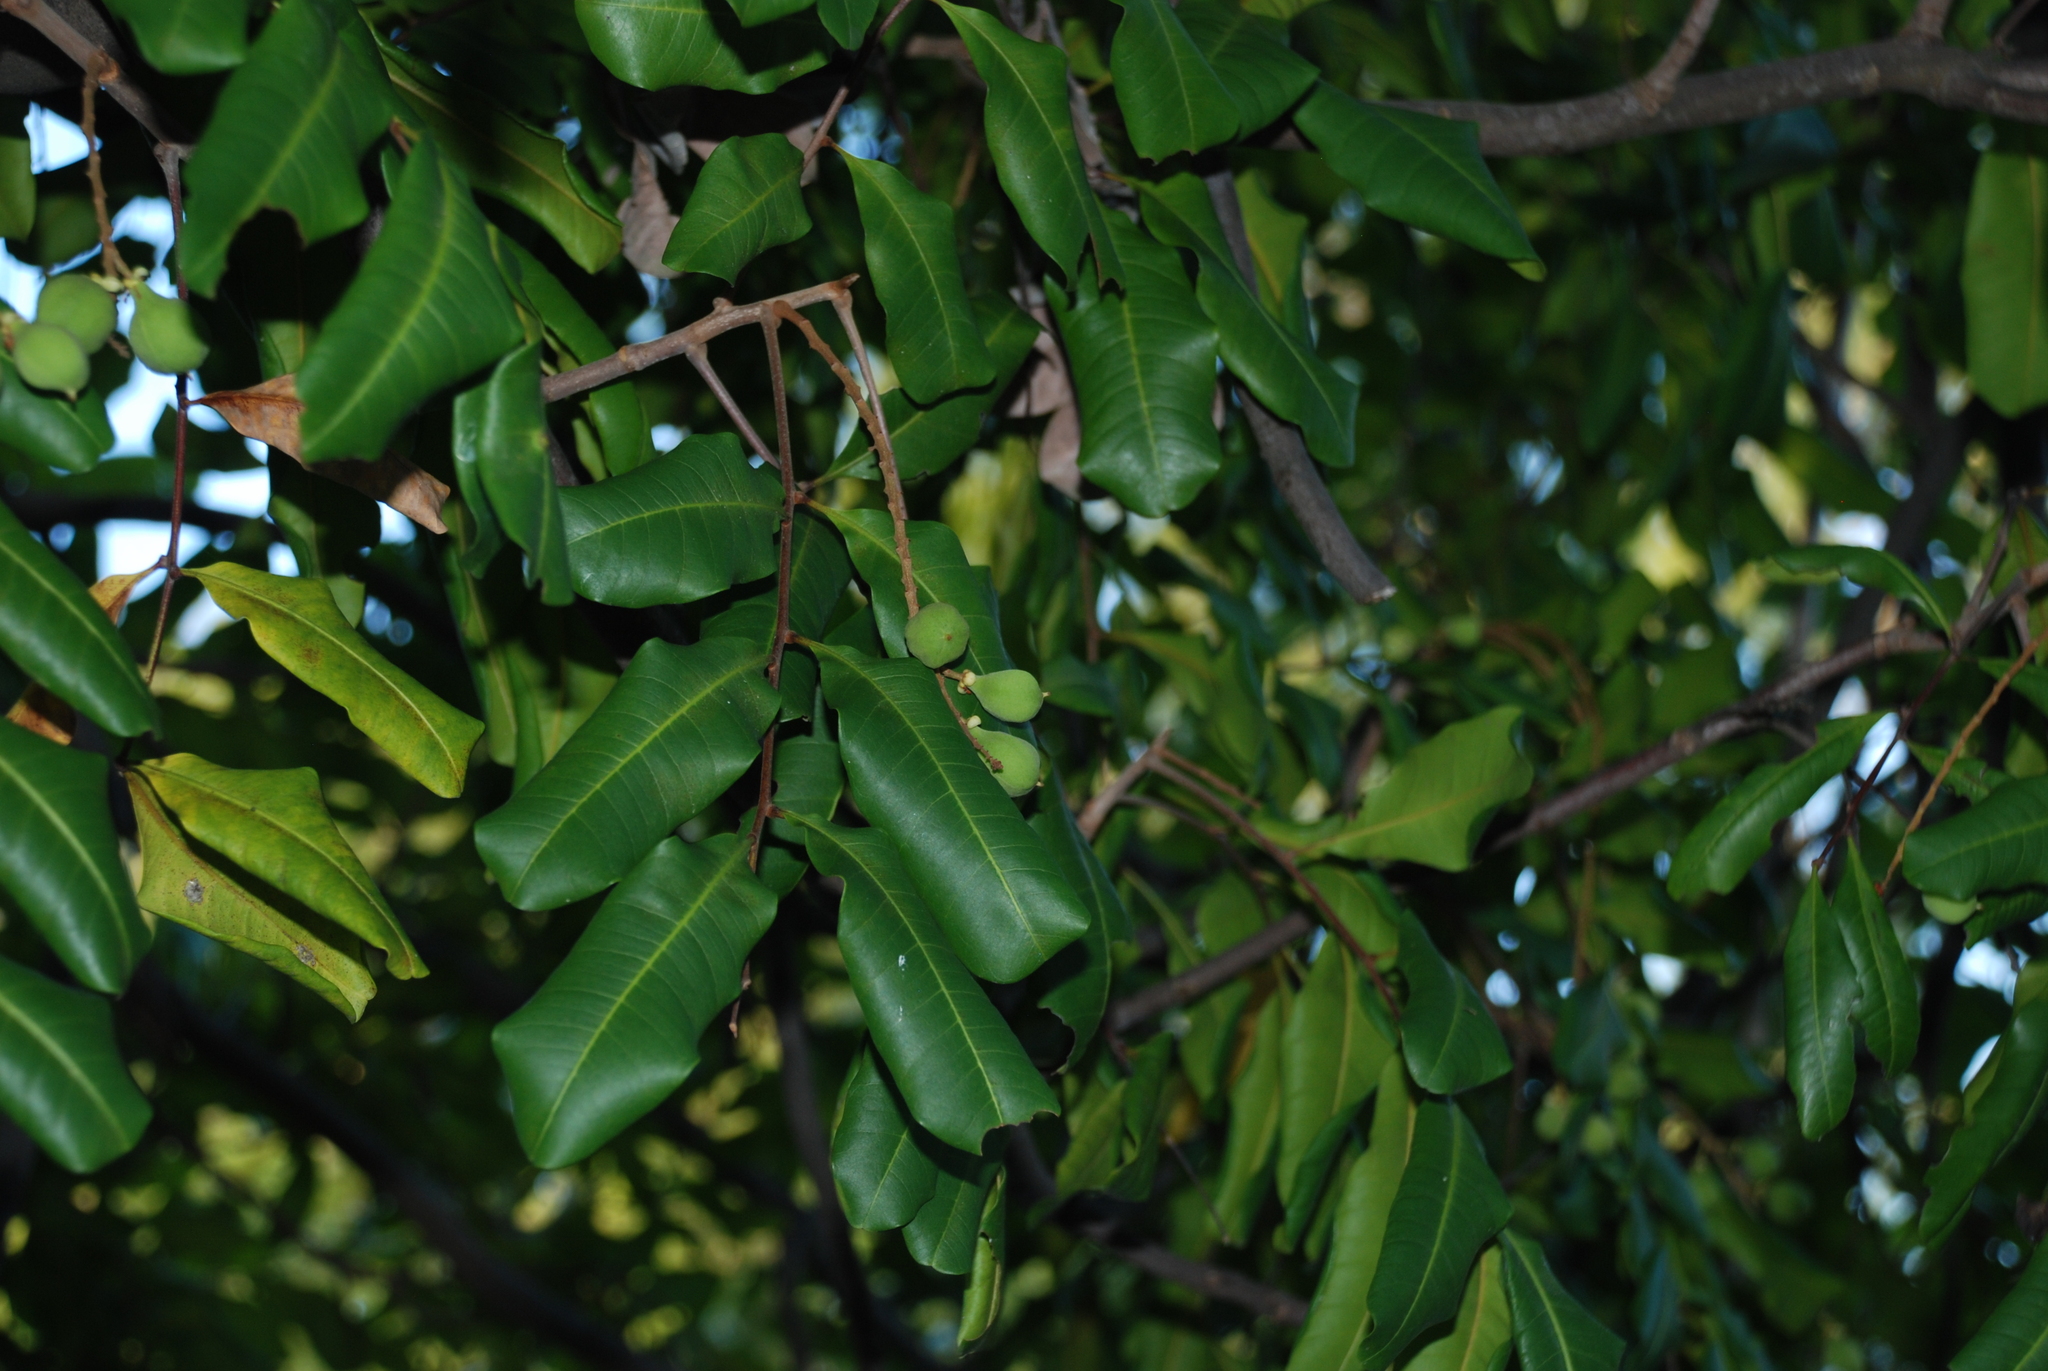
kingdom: Plantae
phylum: Tracheophyta
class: Magnoliopsida
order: Sapindales
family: Sapindaceae
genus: Cupaniopsis
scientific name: Cupaniopsis anacardioides
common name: Carrotwood
